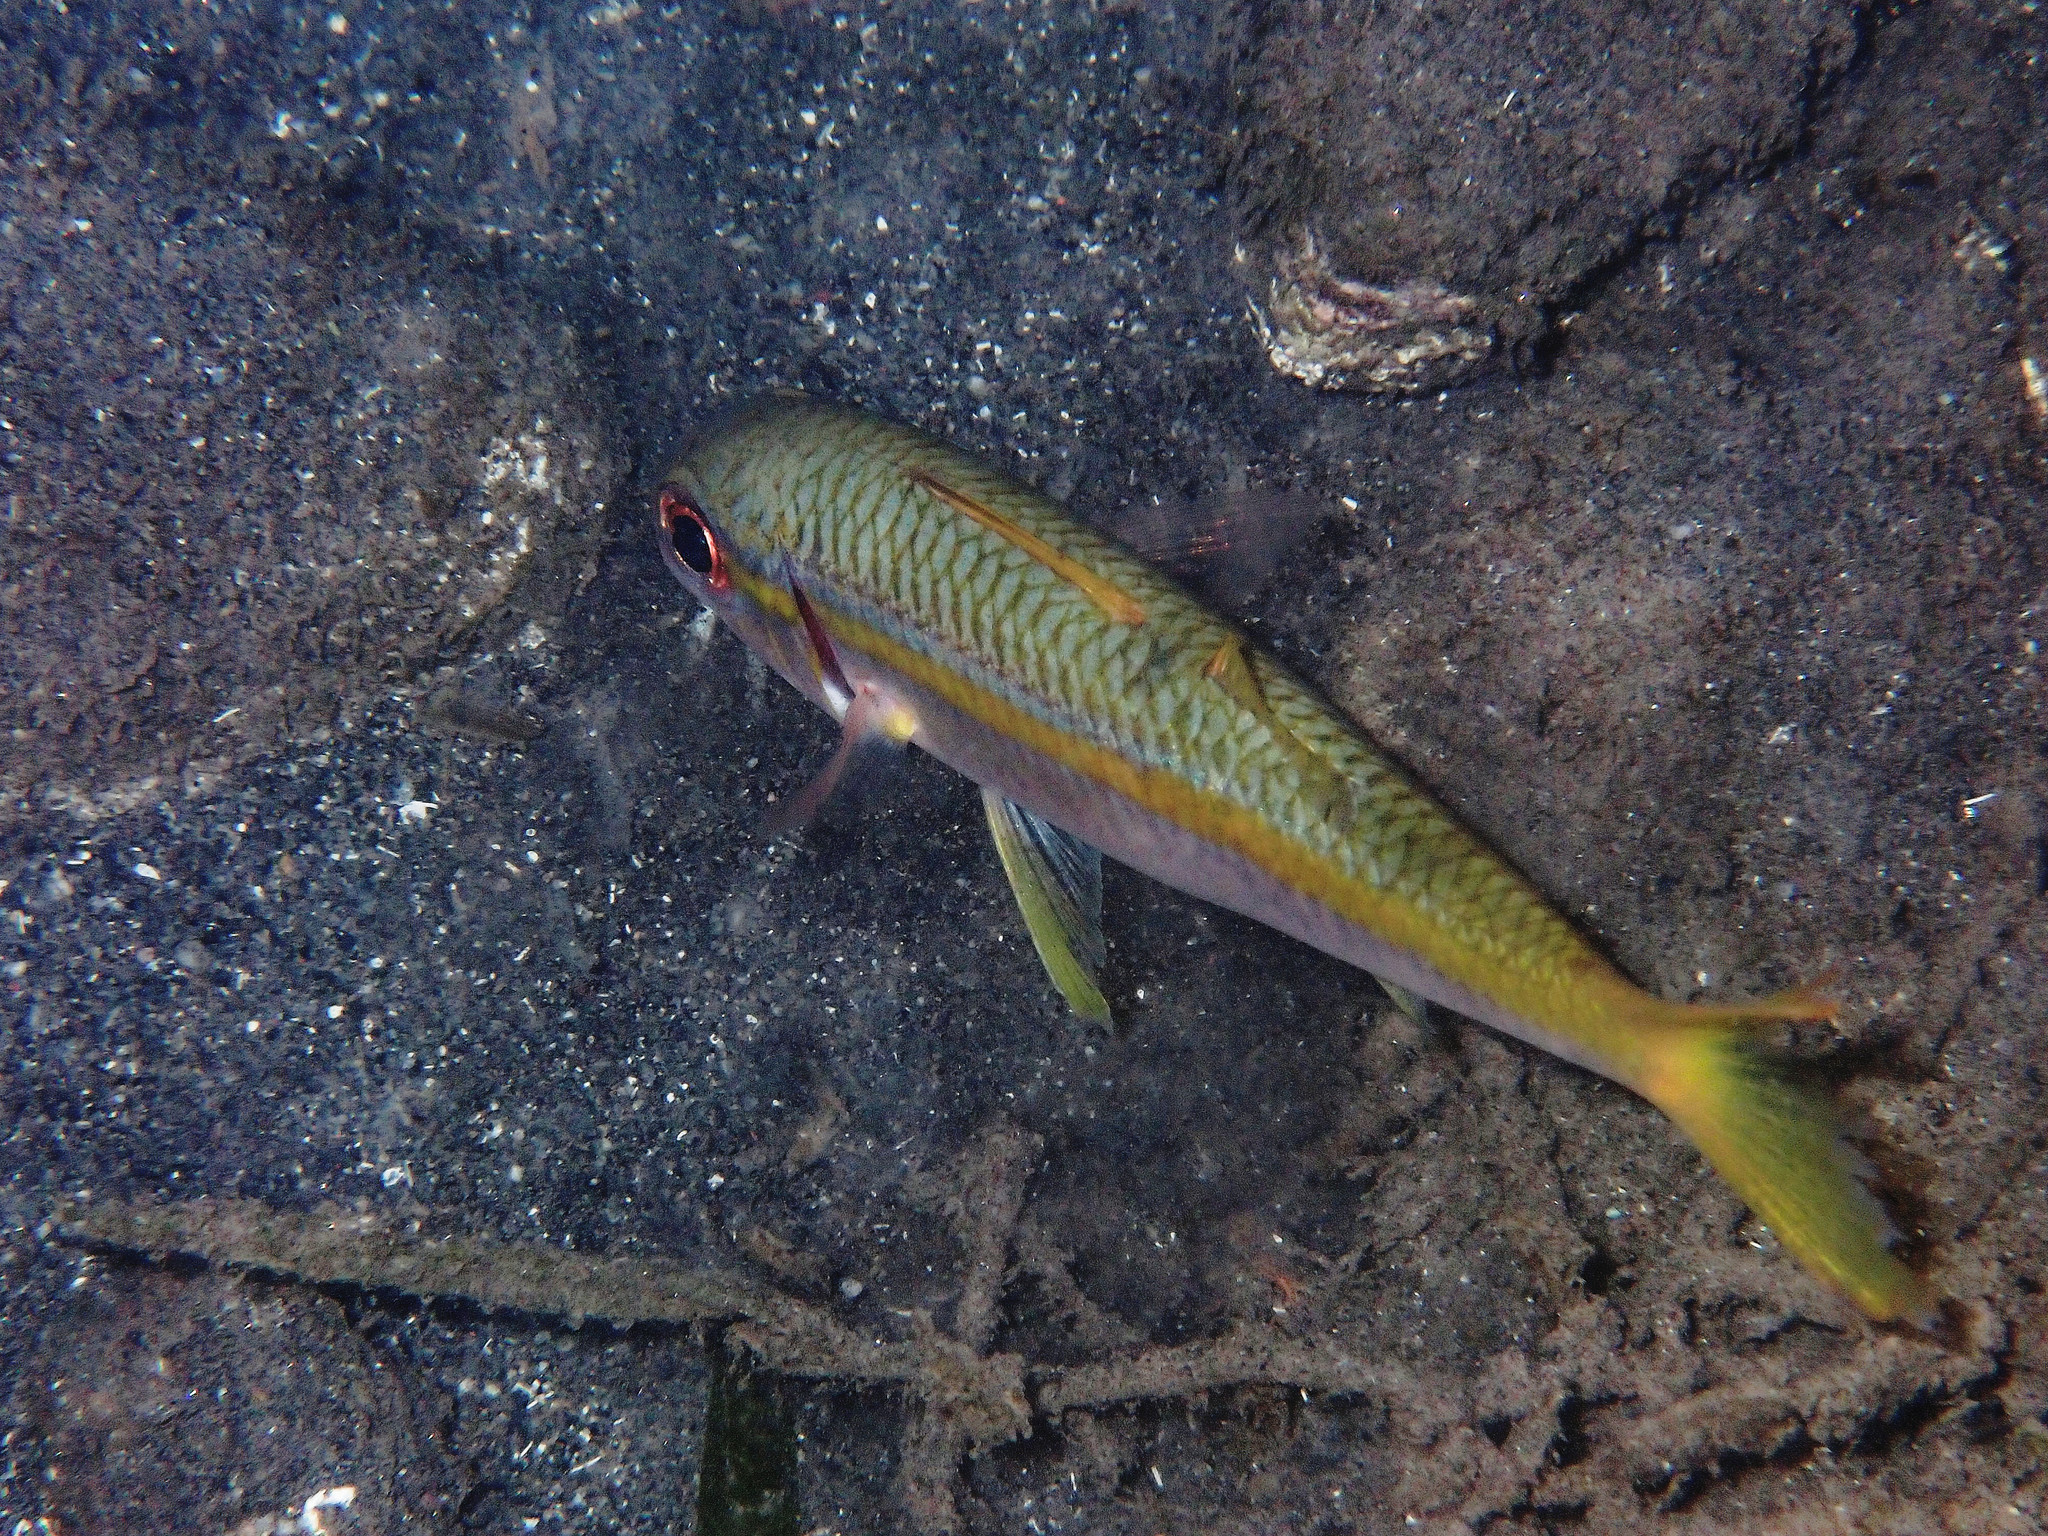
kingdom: Animalia
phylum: Chordata
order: Perciformes
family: Mullidae
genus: Mulloidichthys
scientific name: Mulloidichthys martinicus
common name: Yellow goatfish
